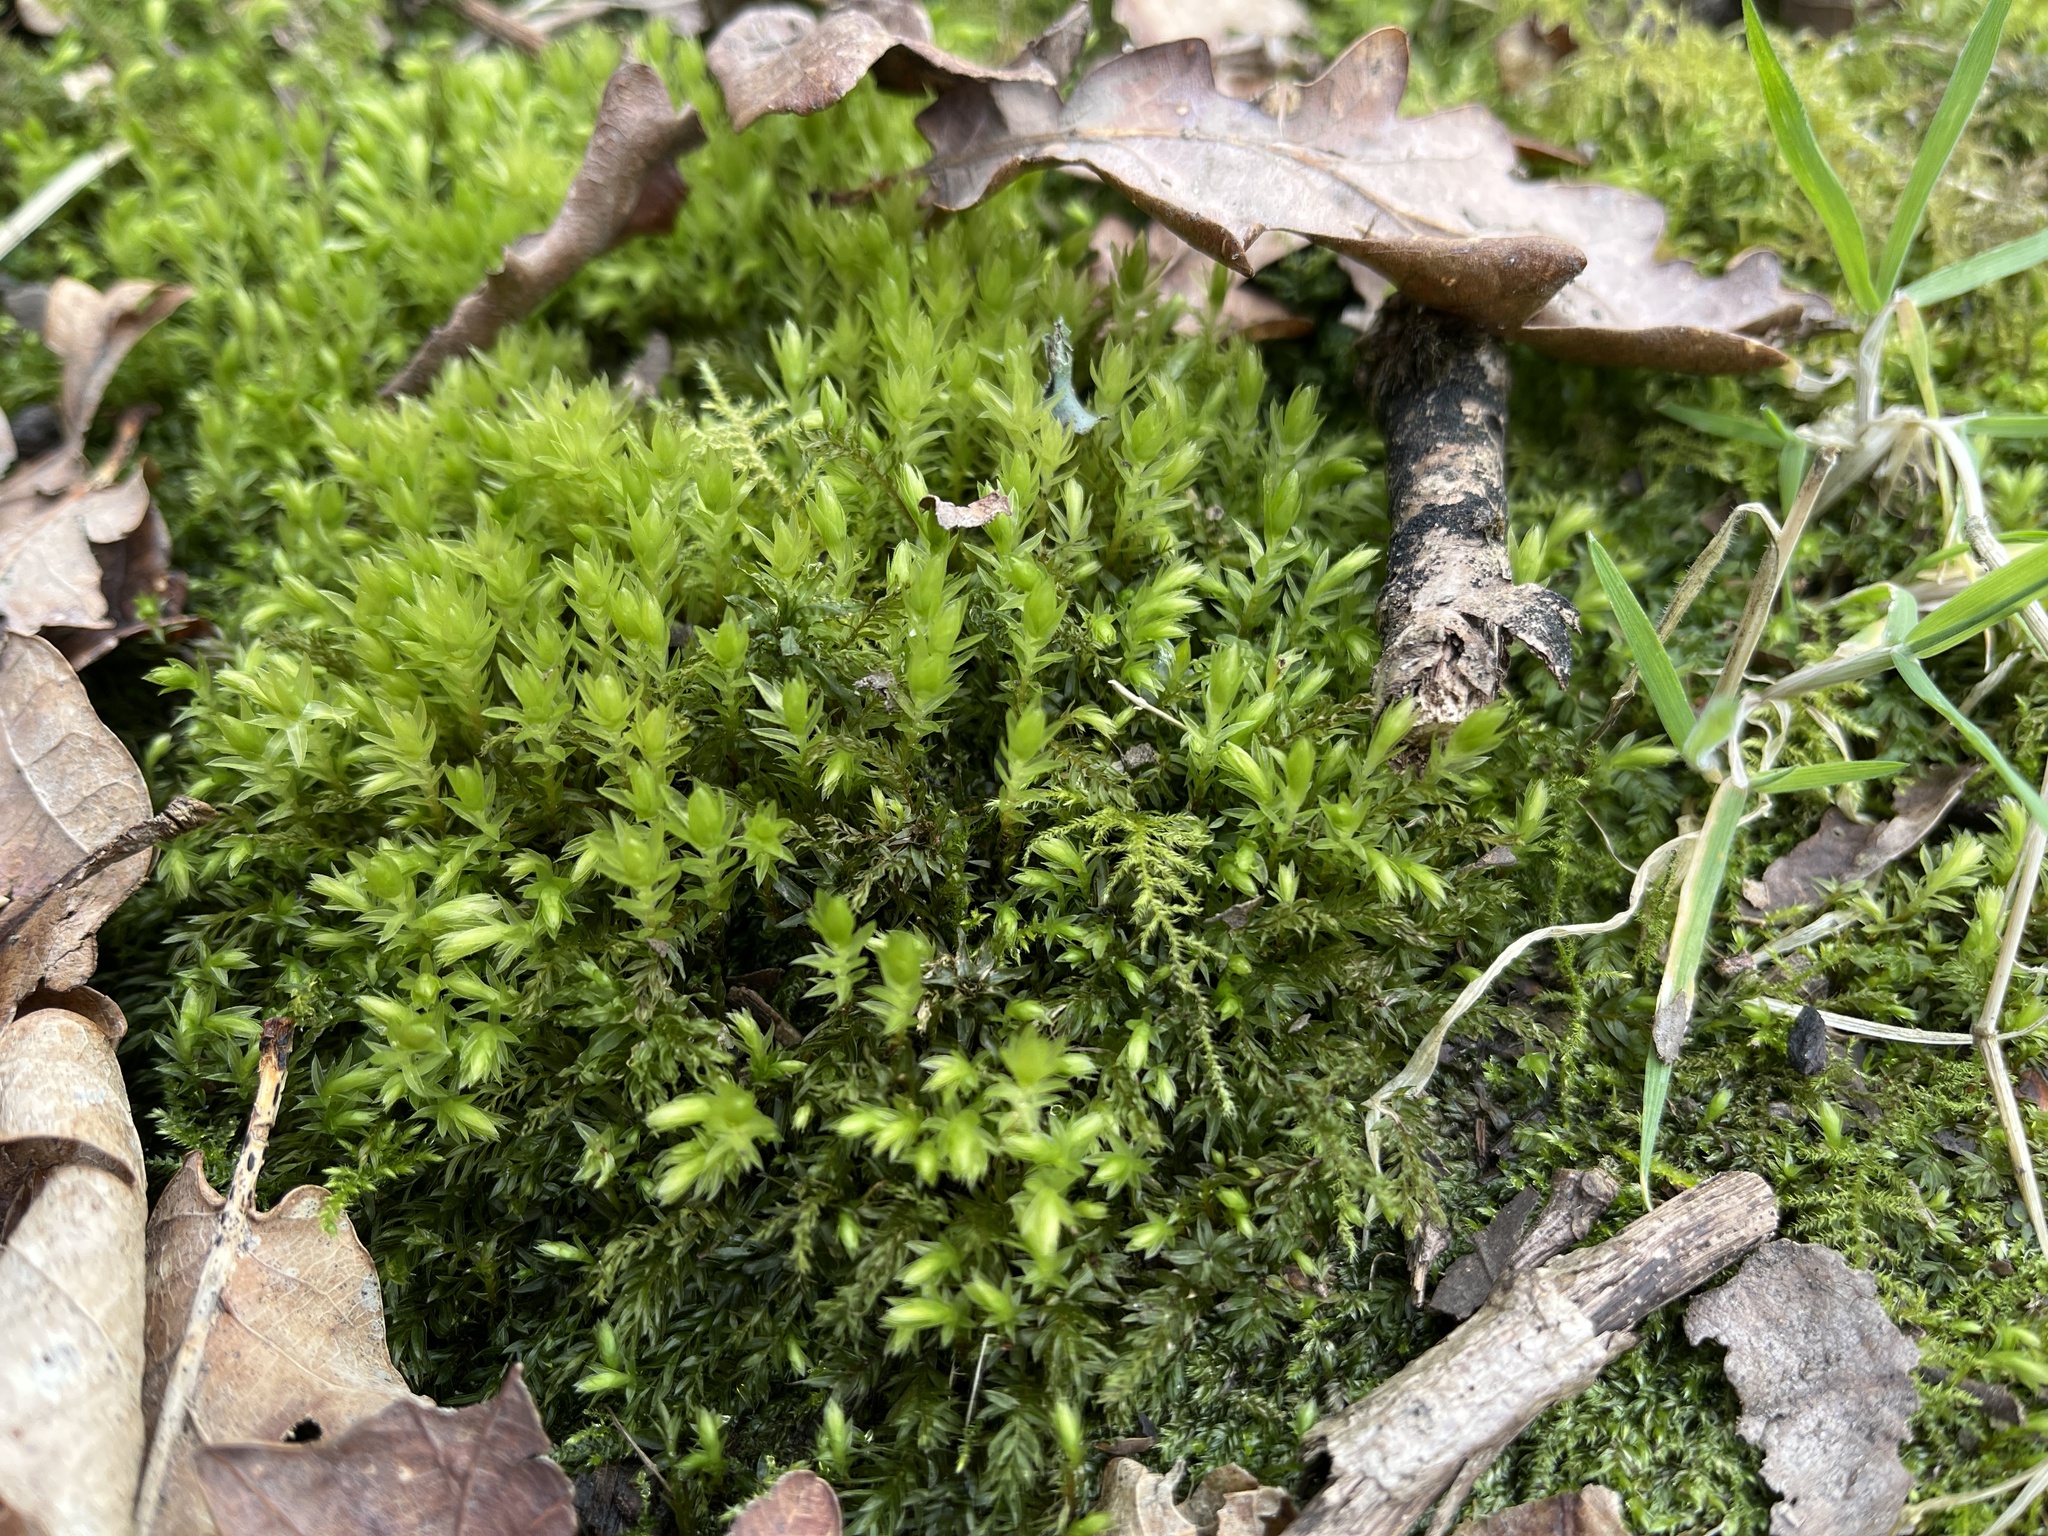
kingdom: Plantae
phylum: Bryophyta
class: Bryopsida
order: Bryales
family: Mniaceae
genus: Mnium
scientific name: Mnium hornum
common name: Swan's-neck leafy moss
